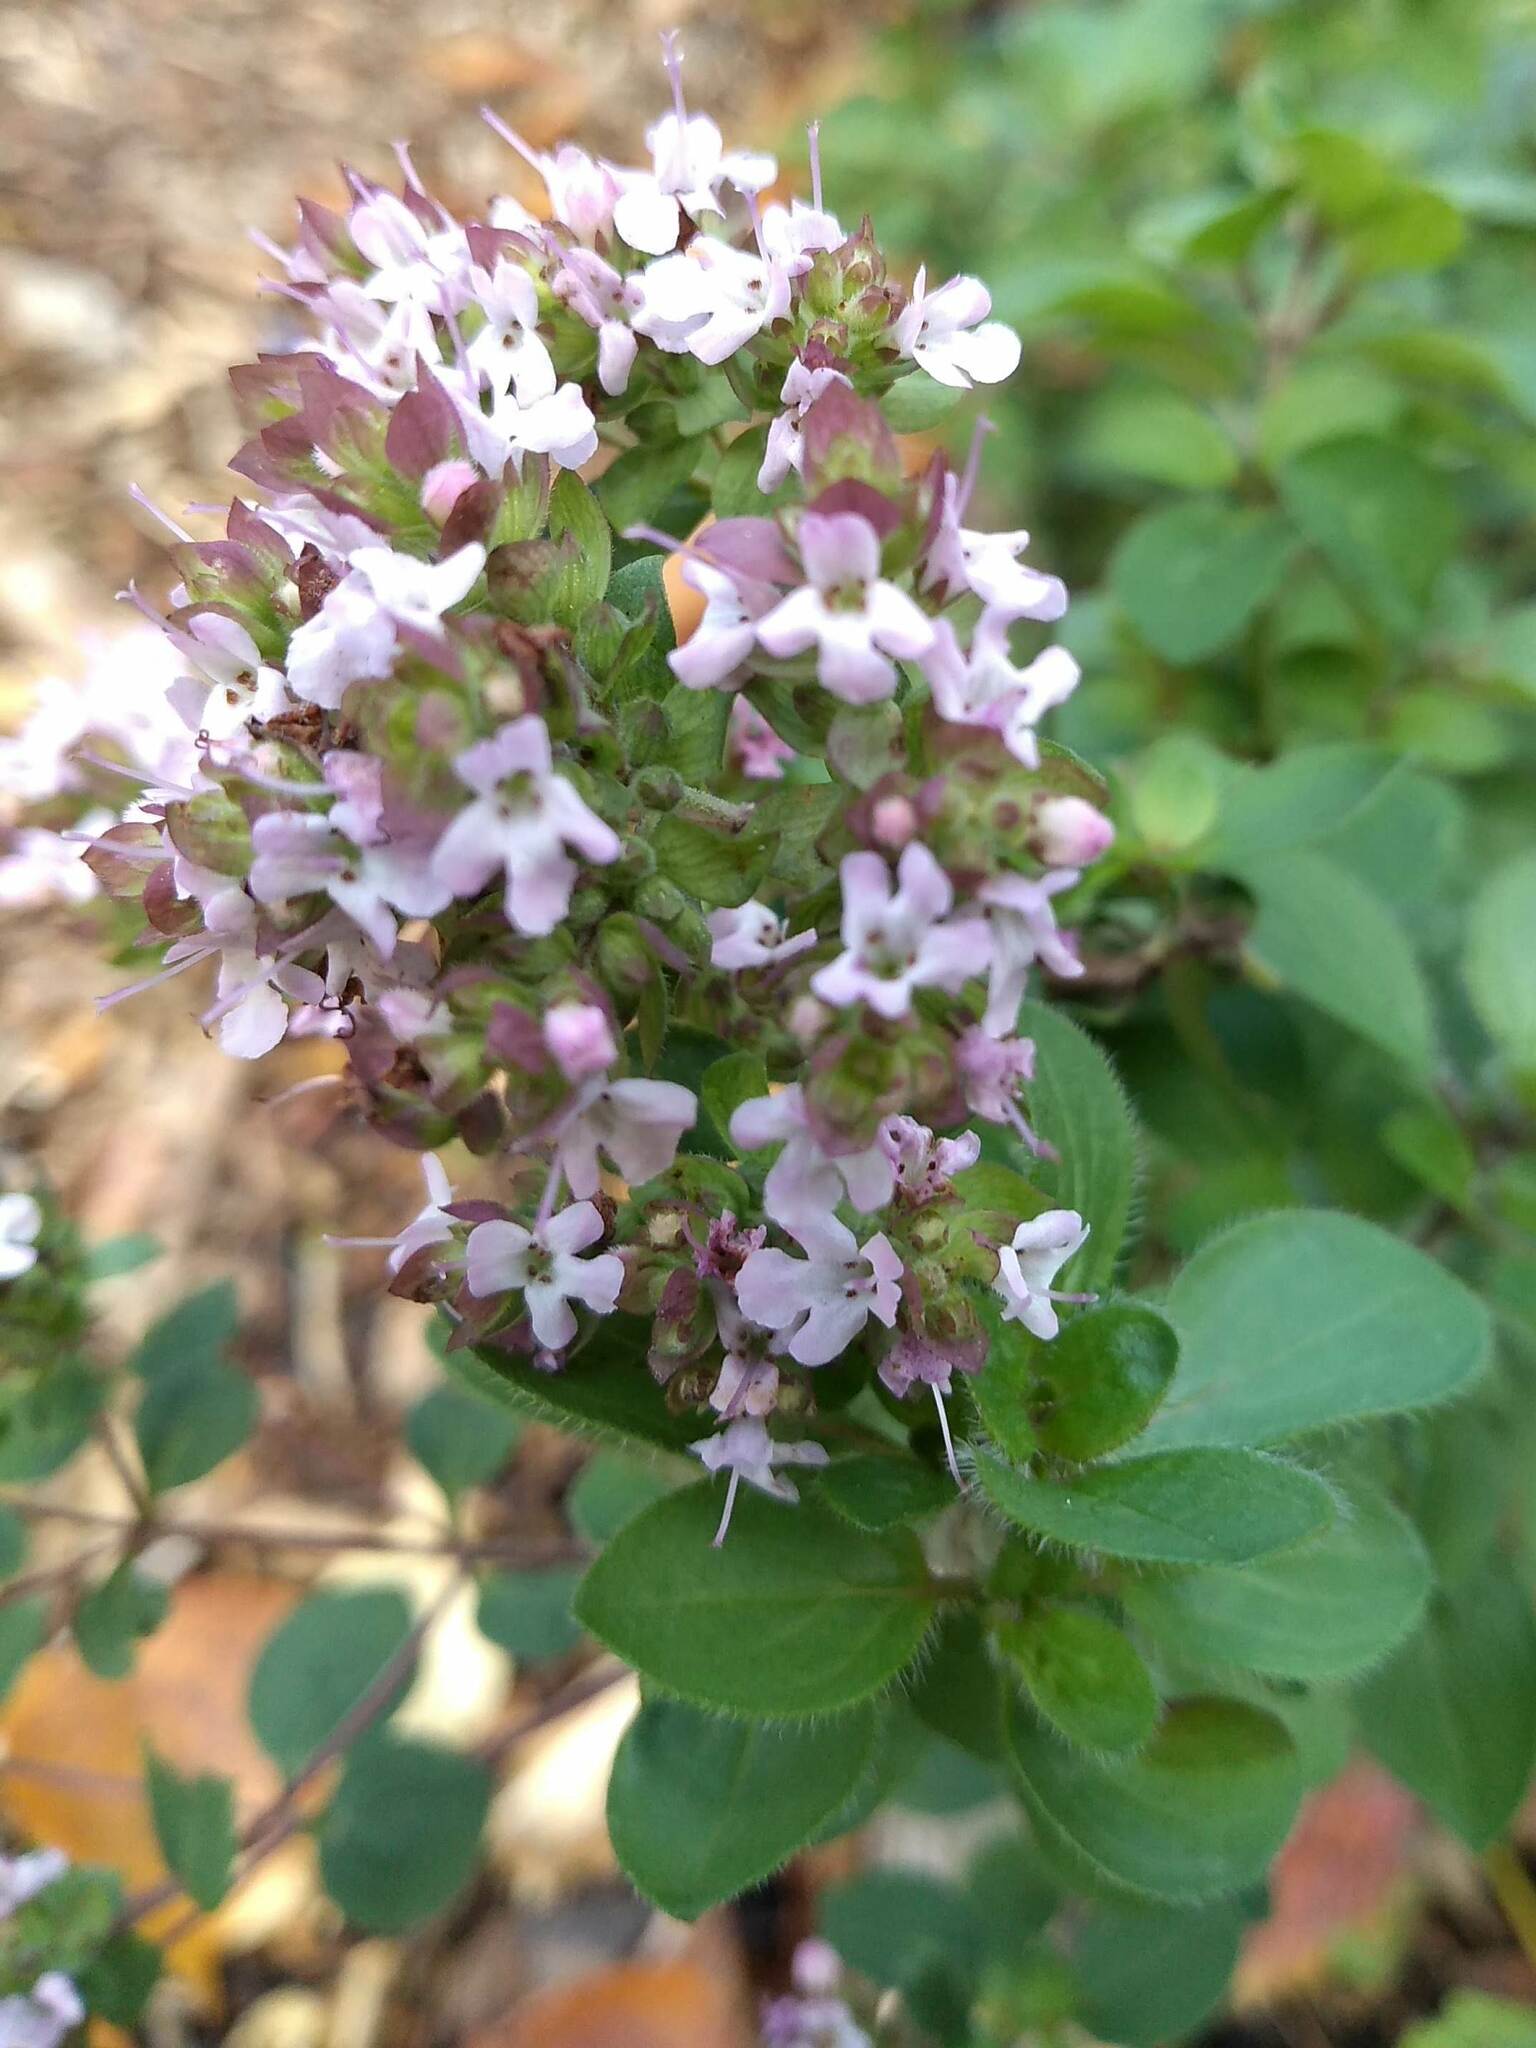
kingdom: Plantae
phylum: Tracheophyta
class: Magnoliopsida
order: Lamiales
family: Lamiaceae
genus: Origanum
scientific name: Origanum vulgare
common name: Wild marjoram
